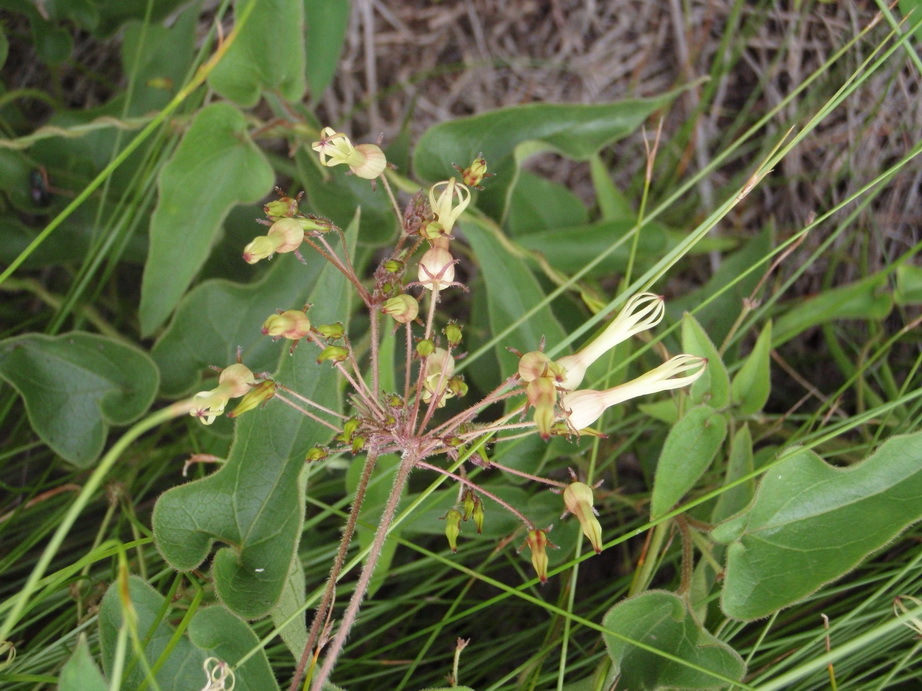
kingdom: Plantae
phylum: Tracheophyta
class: Magnoliopsida
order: Gentianales
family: Apocynaceae
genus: Riocreuxia
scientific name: Riocreuxia torulosa
